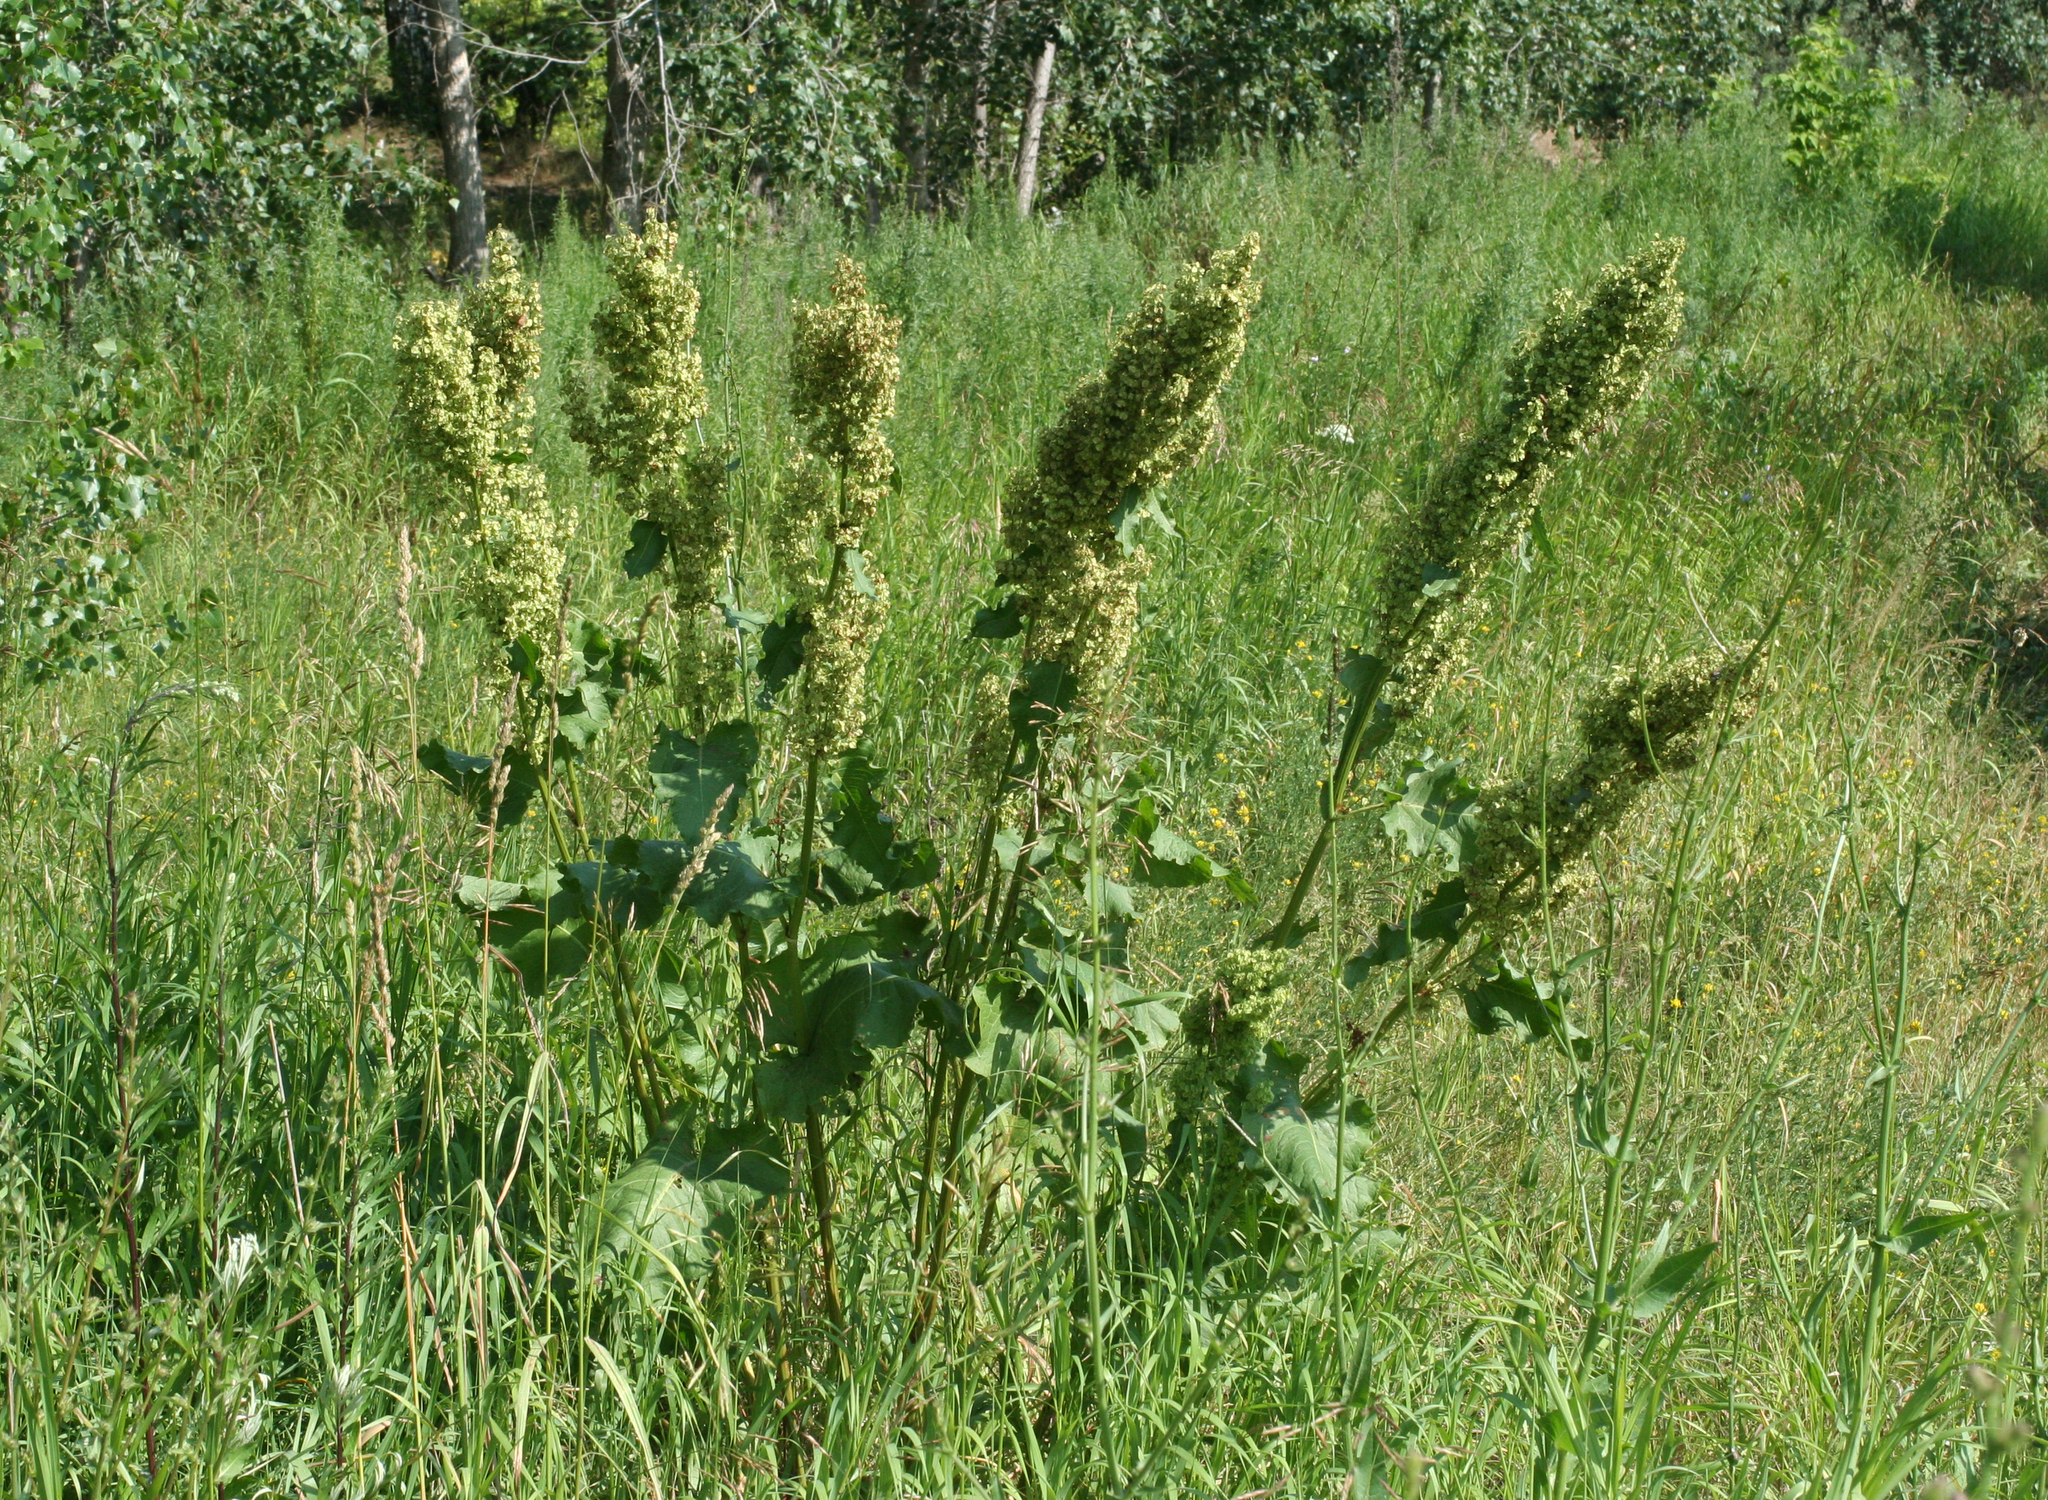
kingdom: Plantae
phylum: Tracheophyta
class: Magnoliopsida
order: Caryophyllales
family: Polygonaceae
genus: Rumex
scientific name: Rumex confertus
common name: Russian dock
